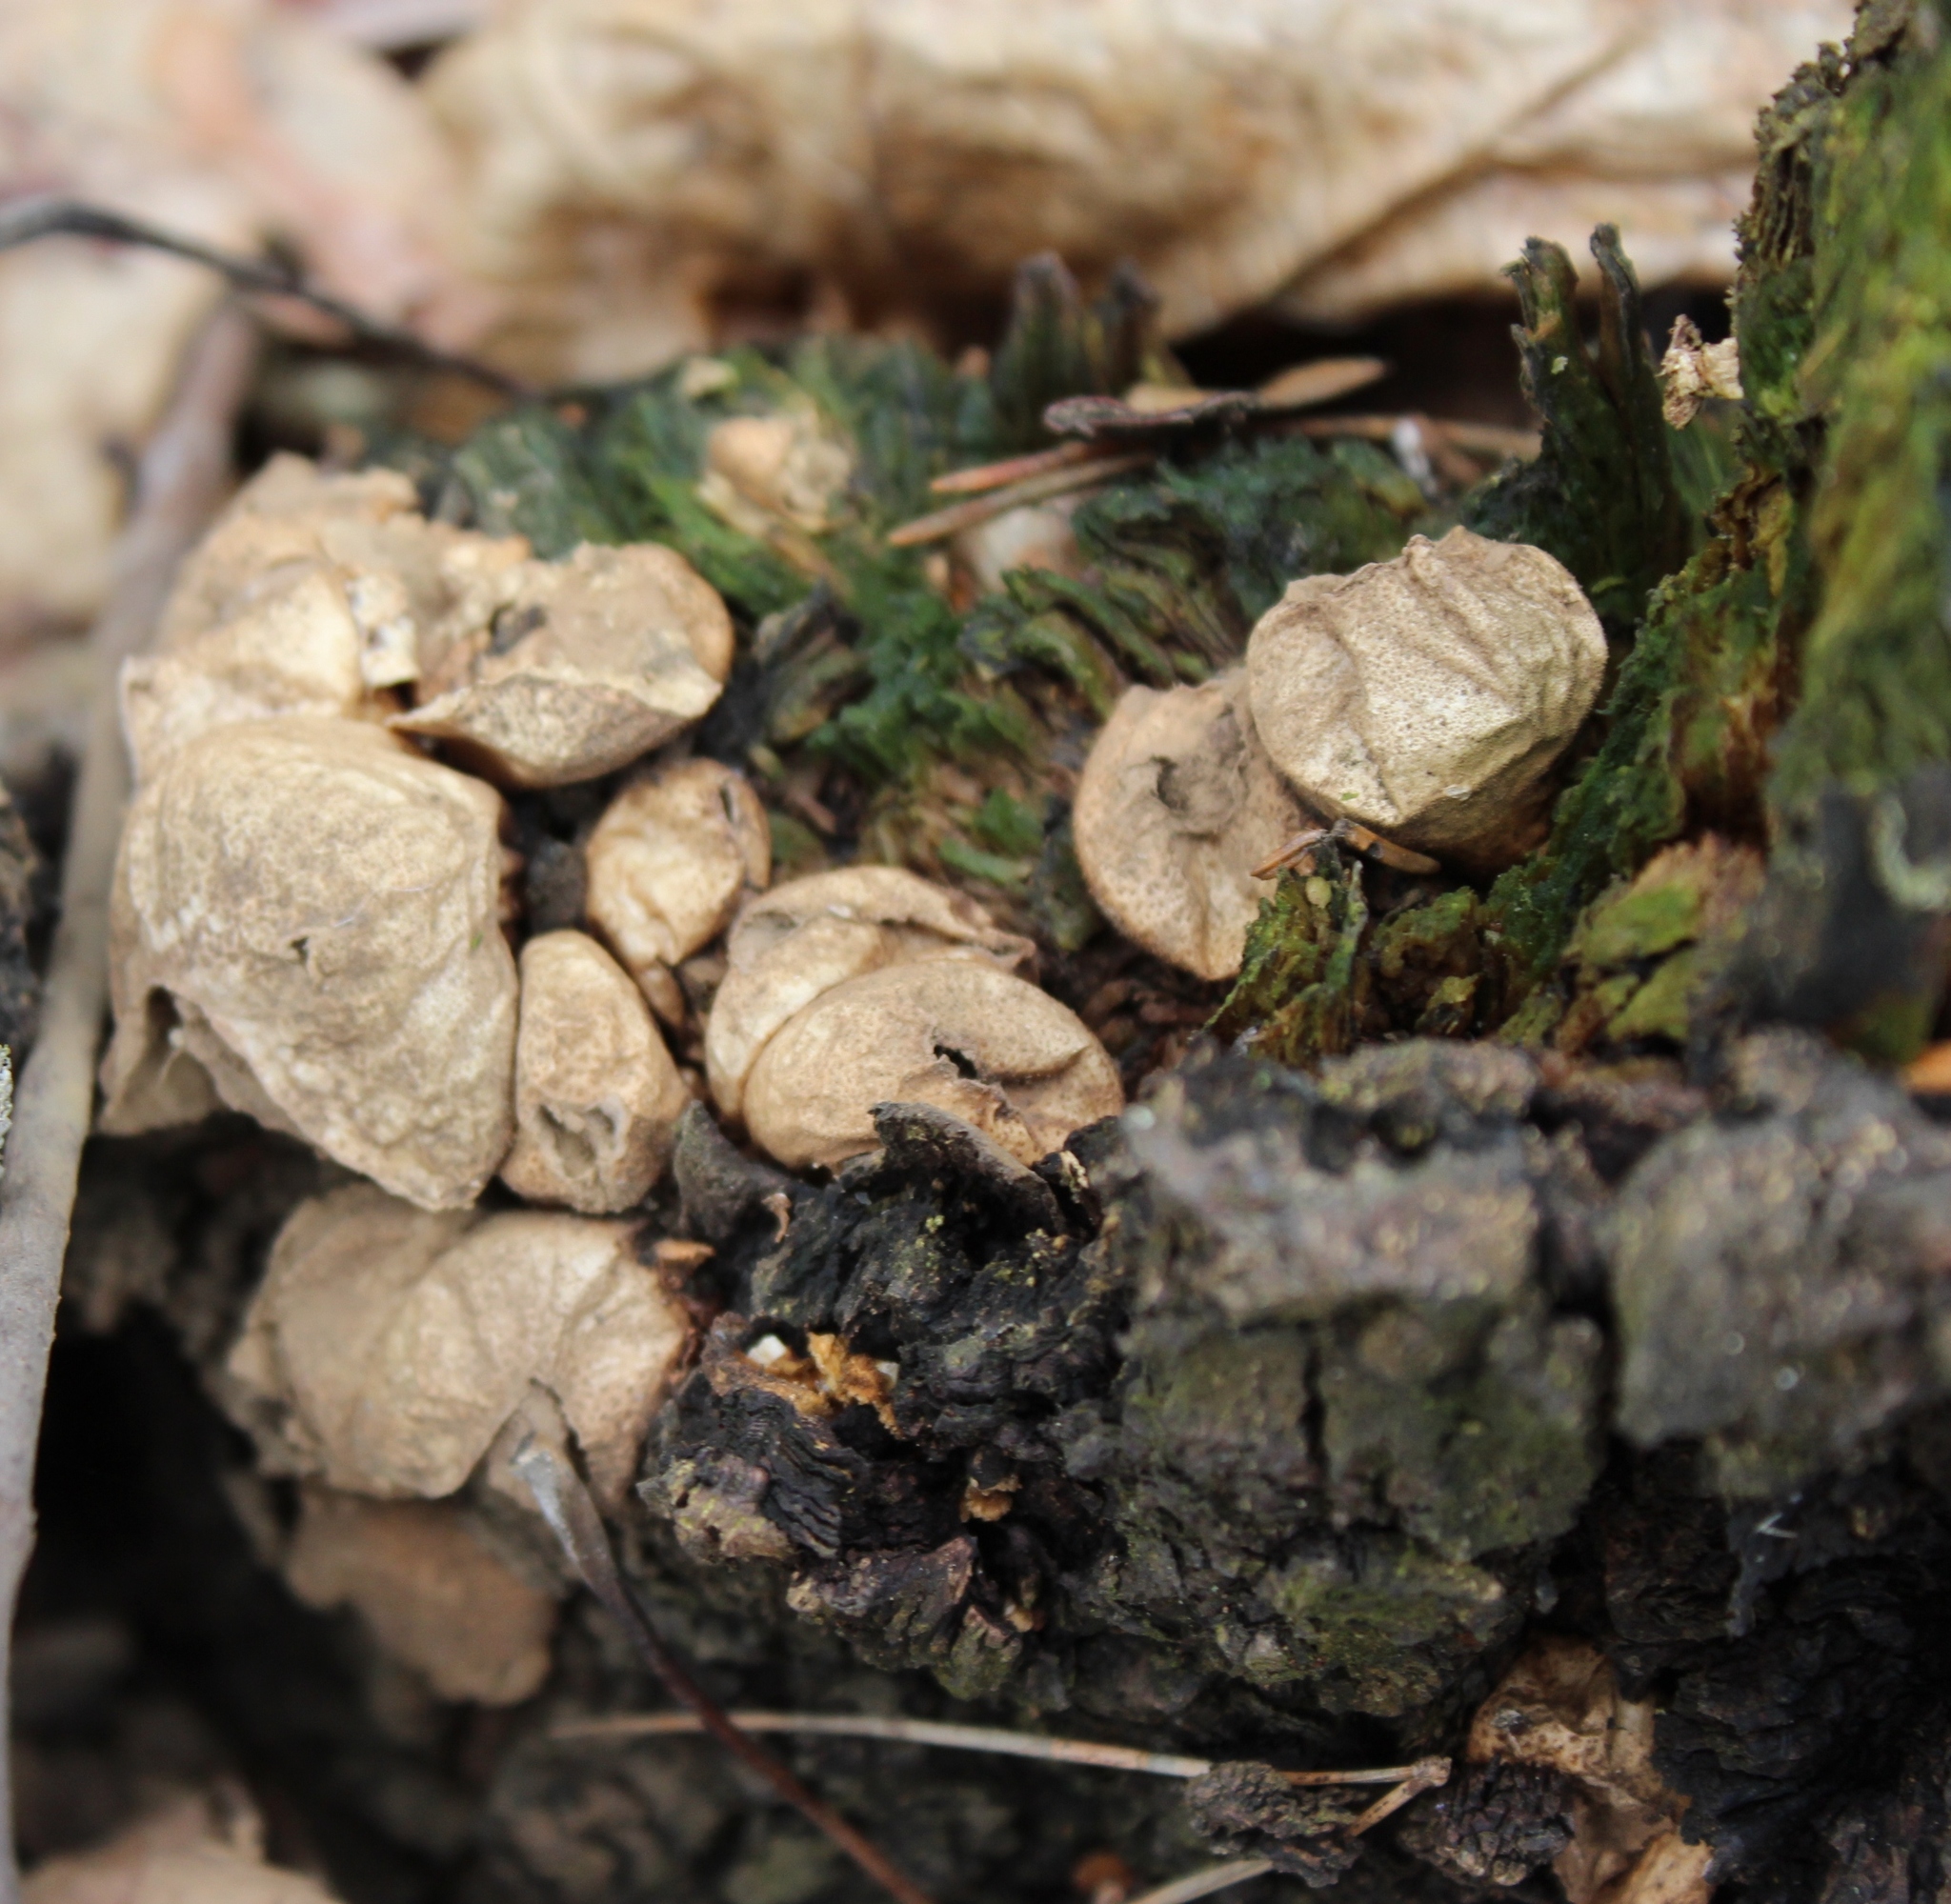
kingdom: Fungi
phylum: Basidiomycota
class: Agaricomycetes
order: Agaricales
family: Lycoperdaceae
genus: Apioperdon
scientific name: Apioperdon pyriforme
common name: Pear-shaped puffball
